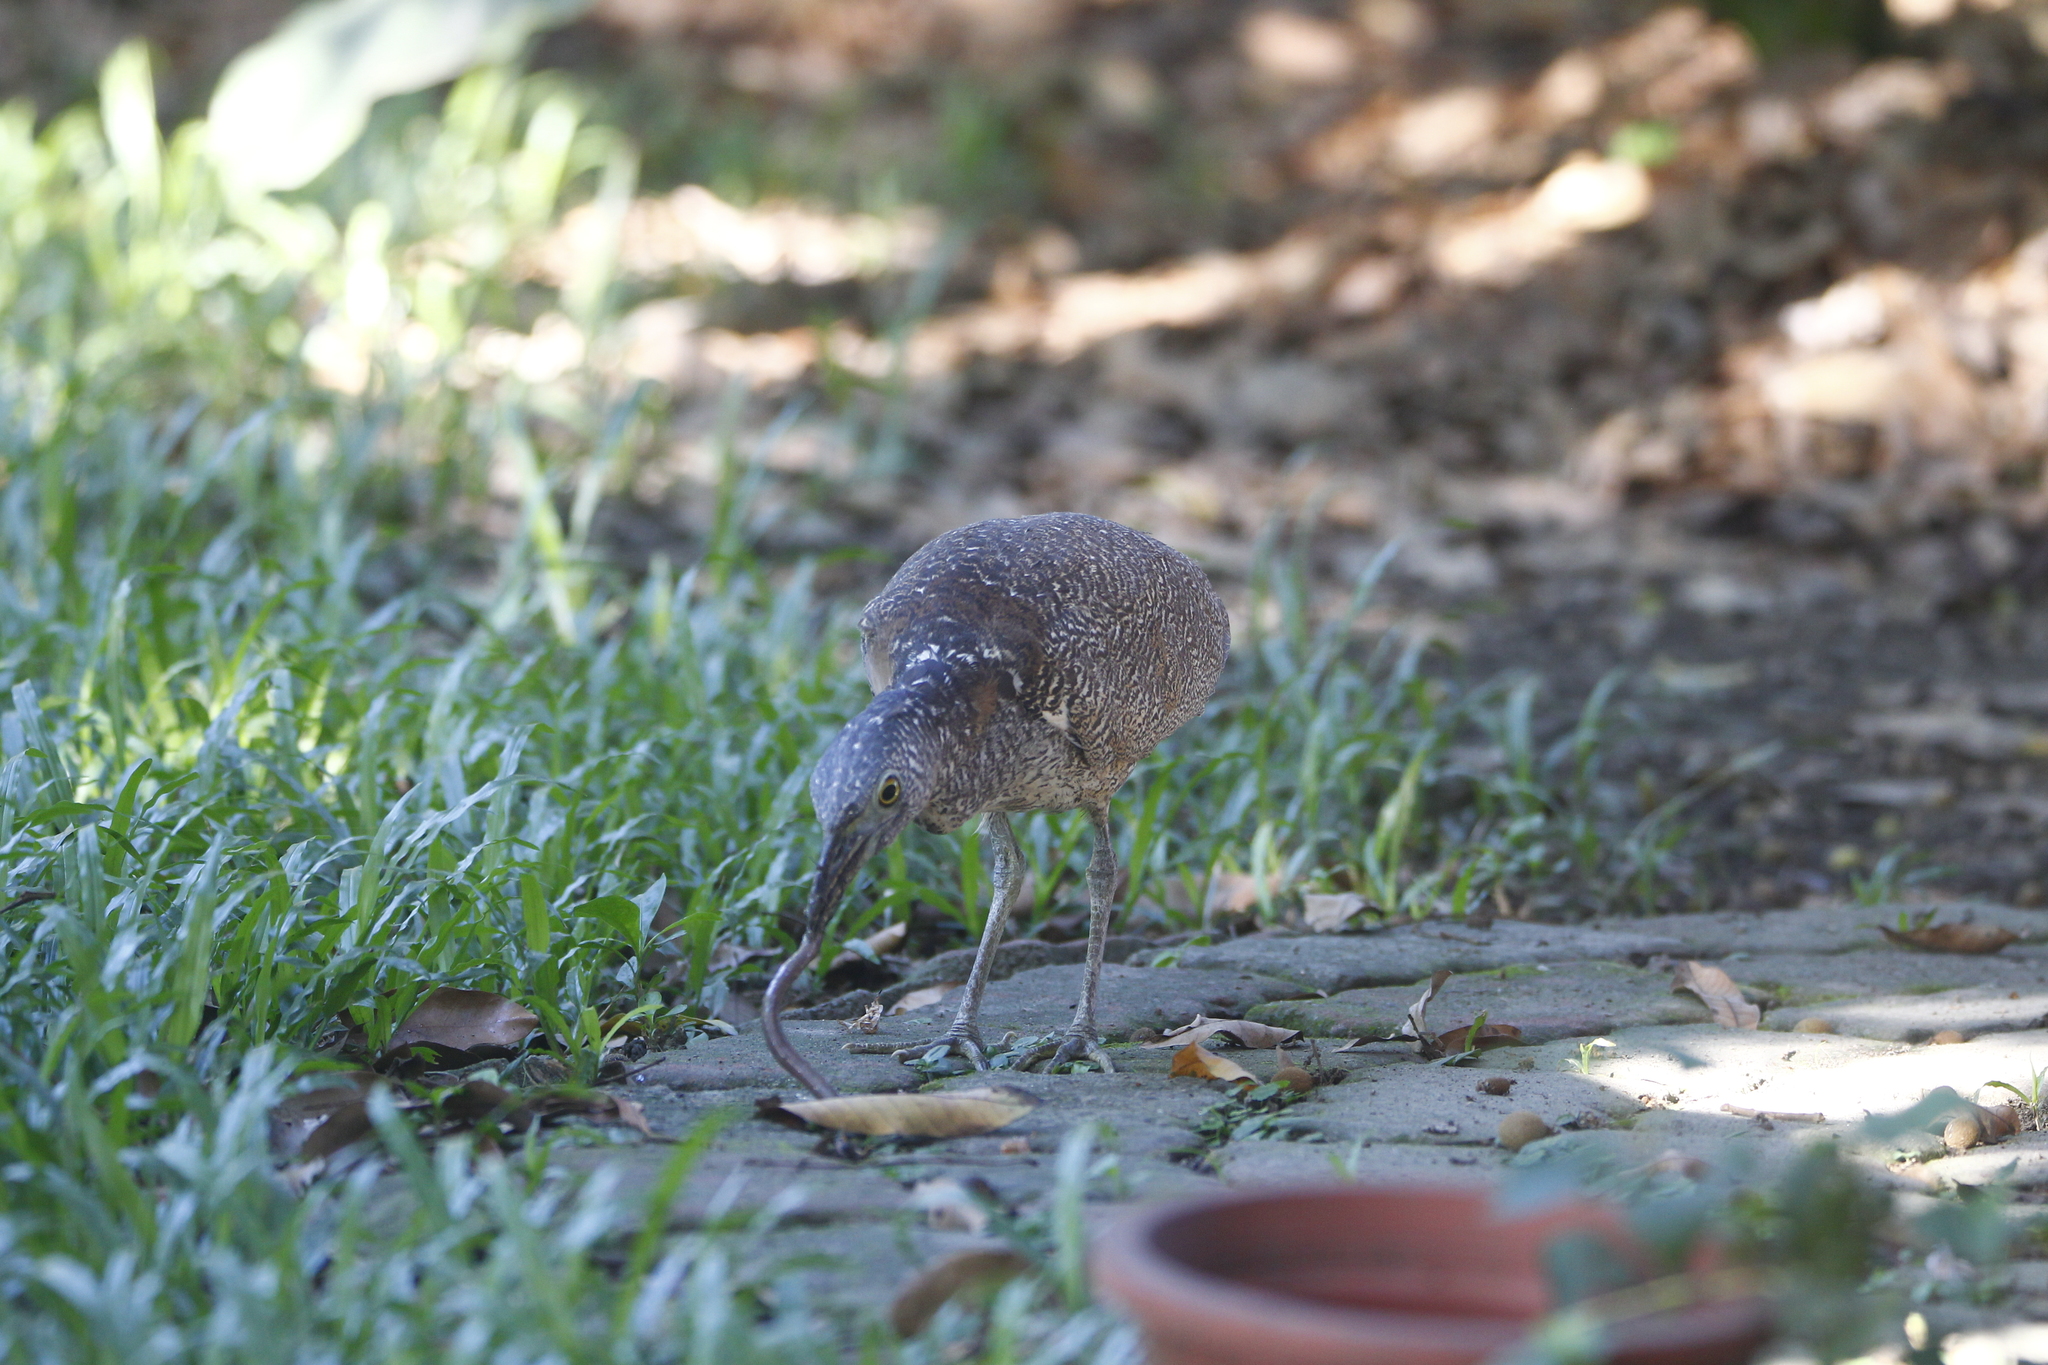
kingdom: Animalia
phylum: Chordata
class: Aves
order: Pelecaniformes
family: Ardeidae
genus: Gorsachius
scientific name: Gorsachius melanolophus
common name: Malayan night heron
